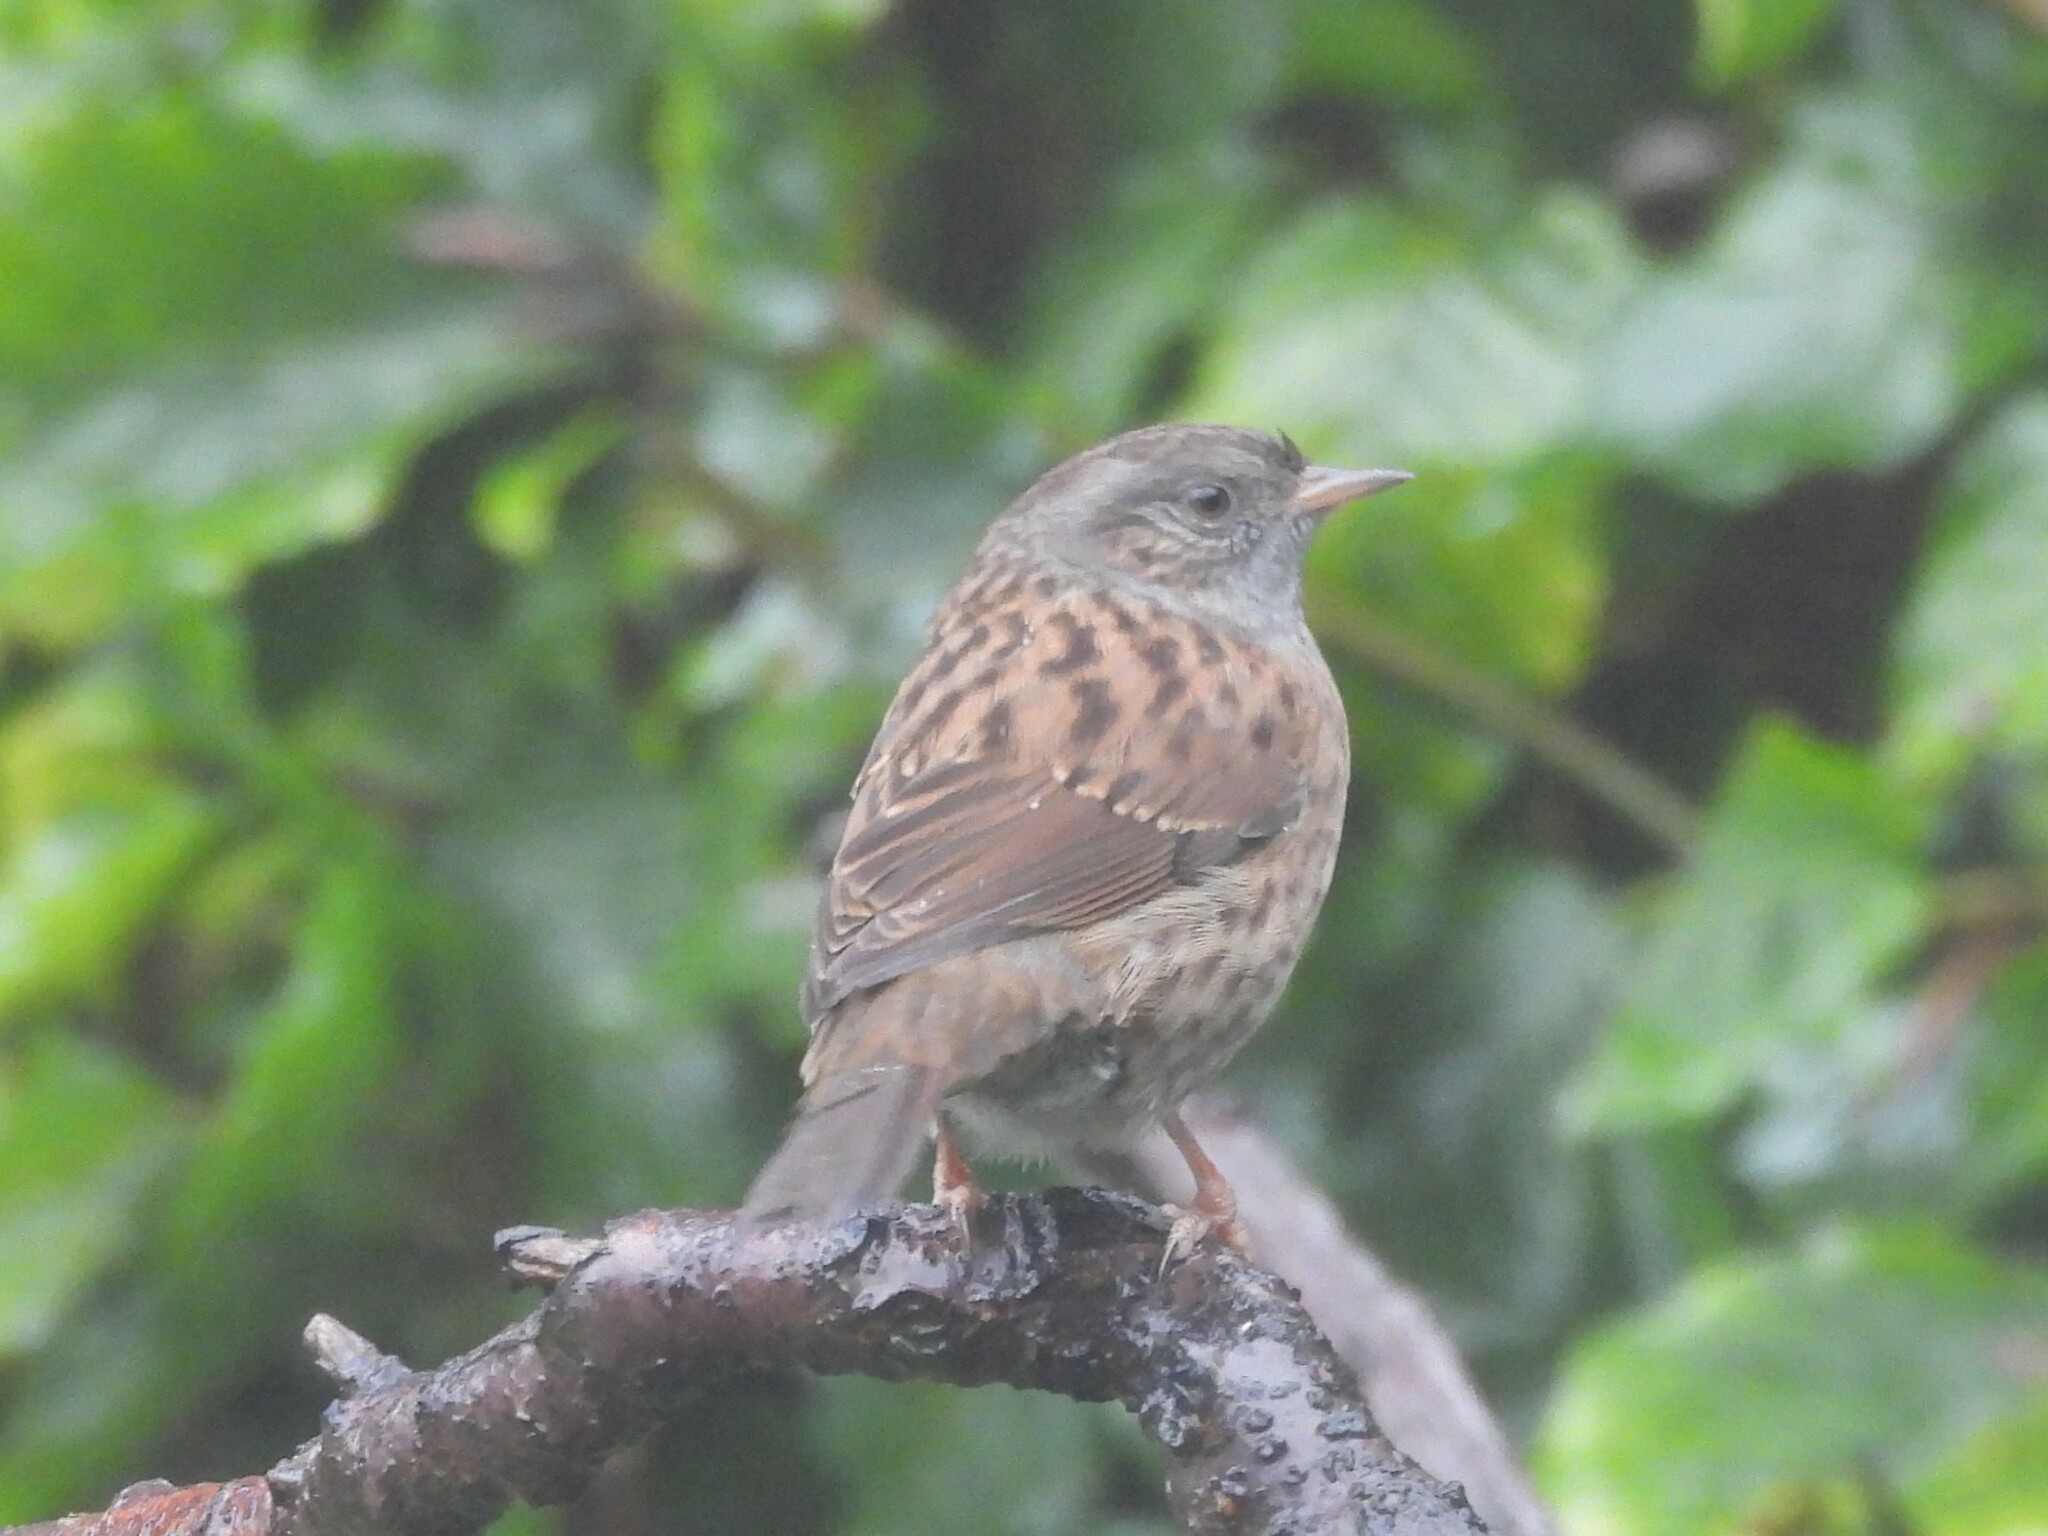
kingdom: Animalia
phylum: Chordata
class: Aves
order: Passeriformes
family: Prunellidae
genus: Prunella
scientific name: Prunella modularis
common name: Dunnock
